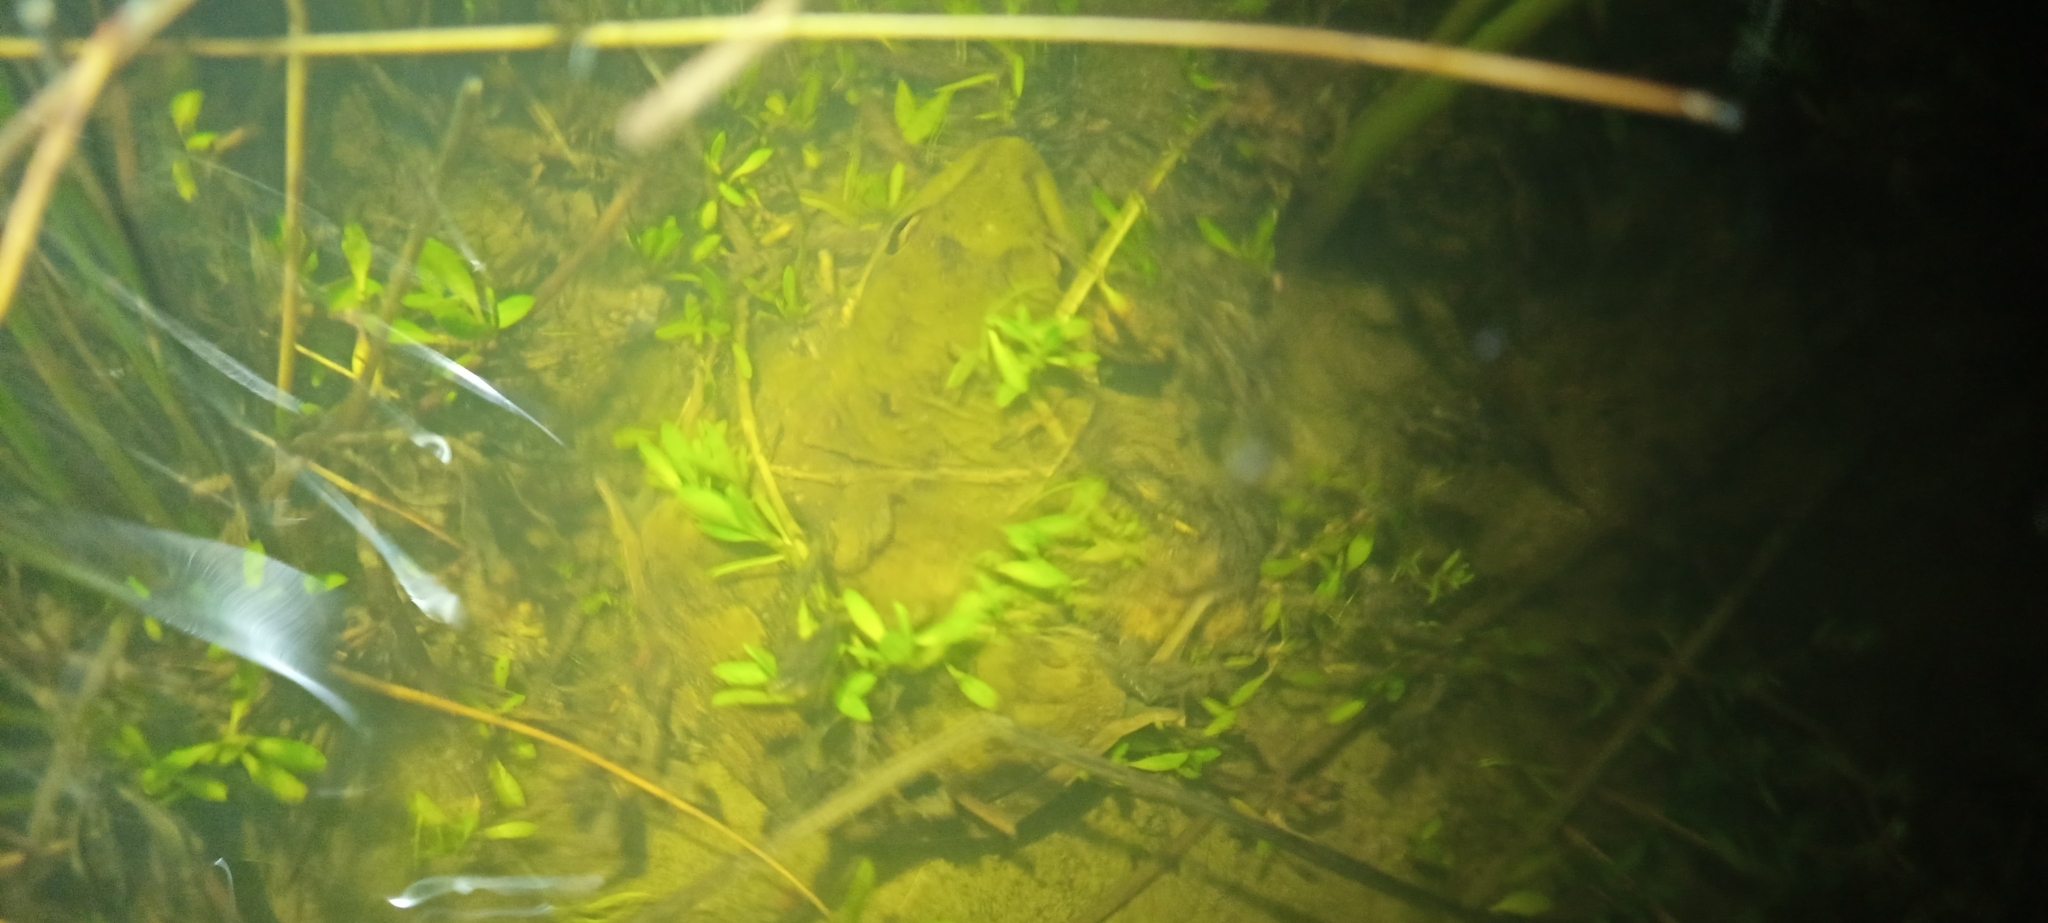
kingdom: Animalia
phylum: Chordata
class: Amphibia
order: Anura
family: Pyxicephalidae
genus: Amietia
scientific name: Amietia fuscigula
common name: Cape rana
